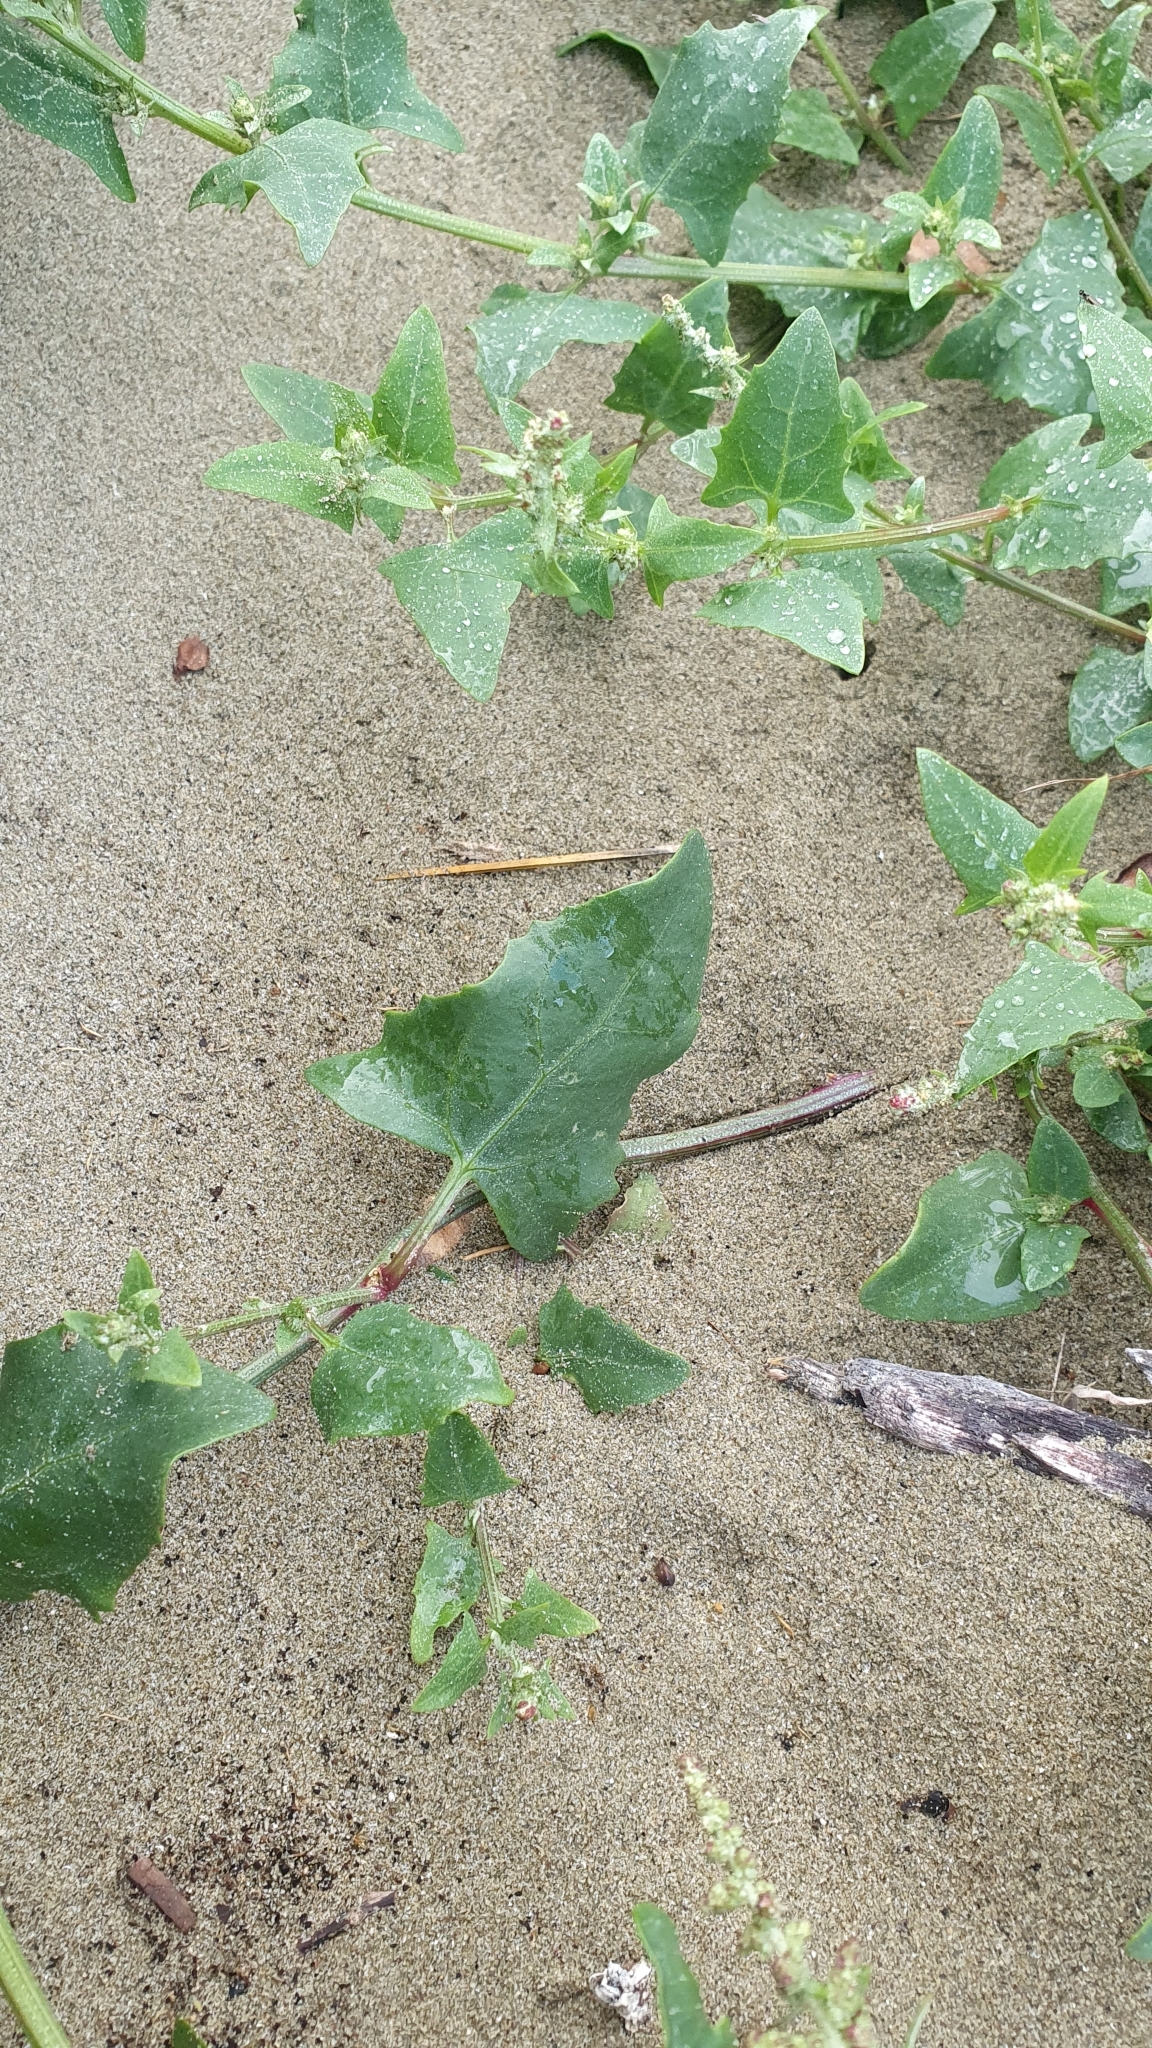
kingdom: Plantae
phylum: Tracheophyta
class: Magnoliopsida
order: Caryophyllales
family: Amaranthaceae
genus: Atriplex
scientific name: Atriplex prostrata
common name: Spear-leaved orache
